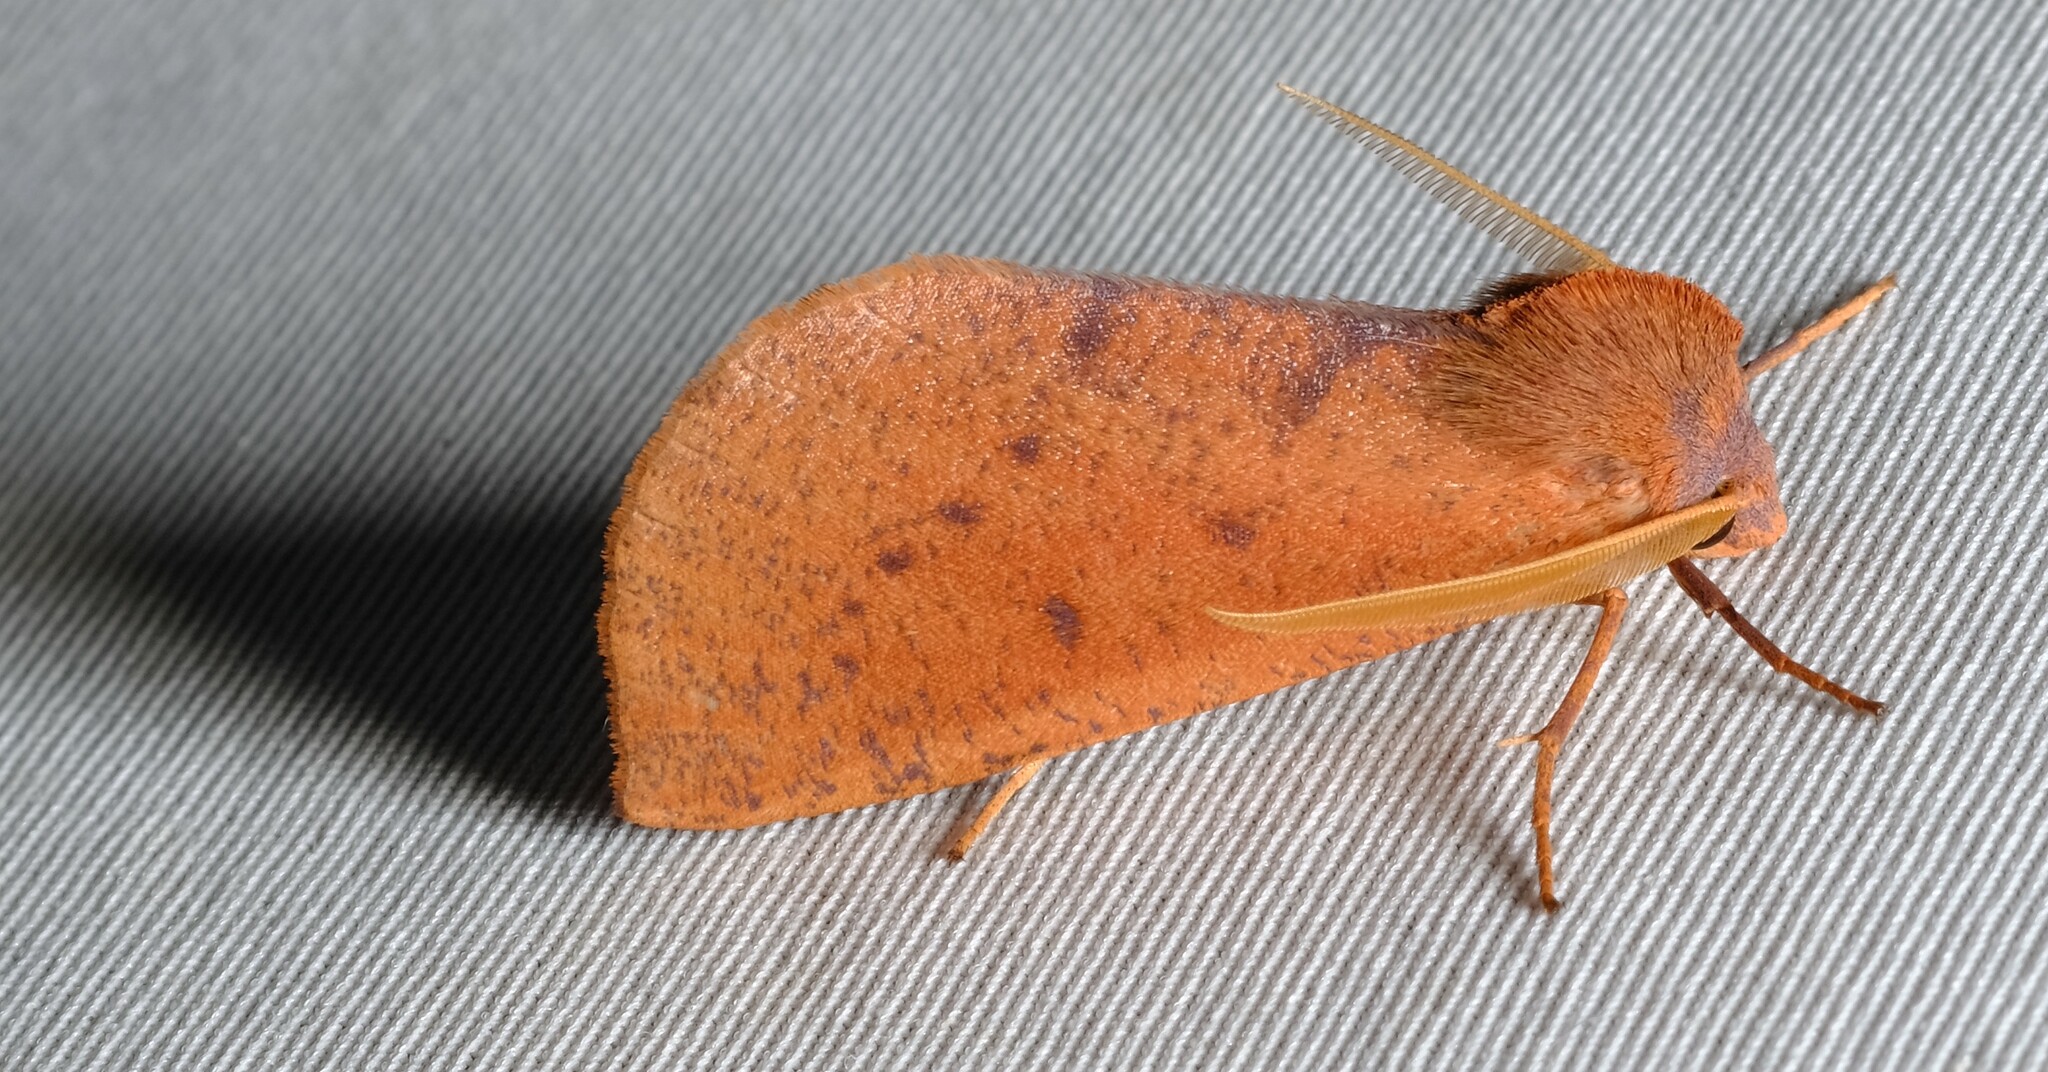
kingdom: Animalia
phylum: Arthropoda
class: Insecta
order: Lepidoptera
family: Geometridae
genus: Fisera
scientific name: Fisera hypoleuca
